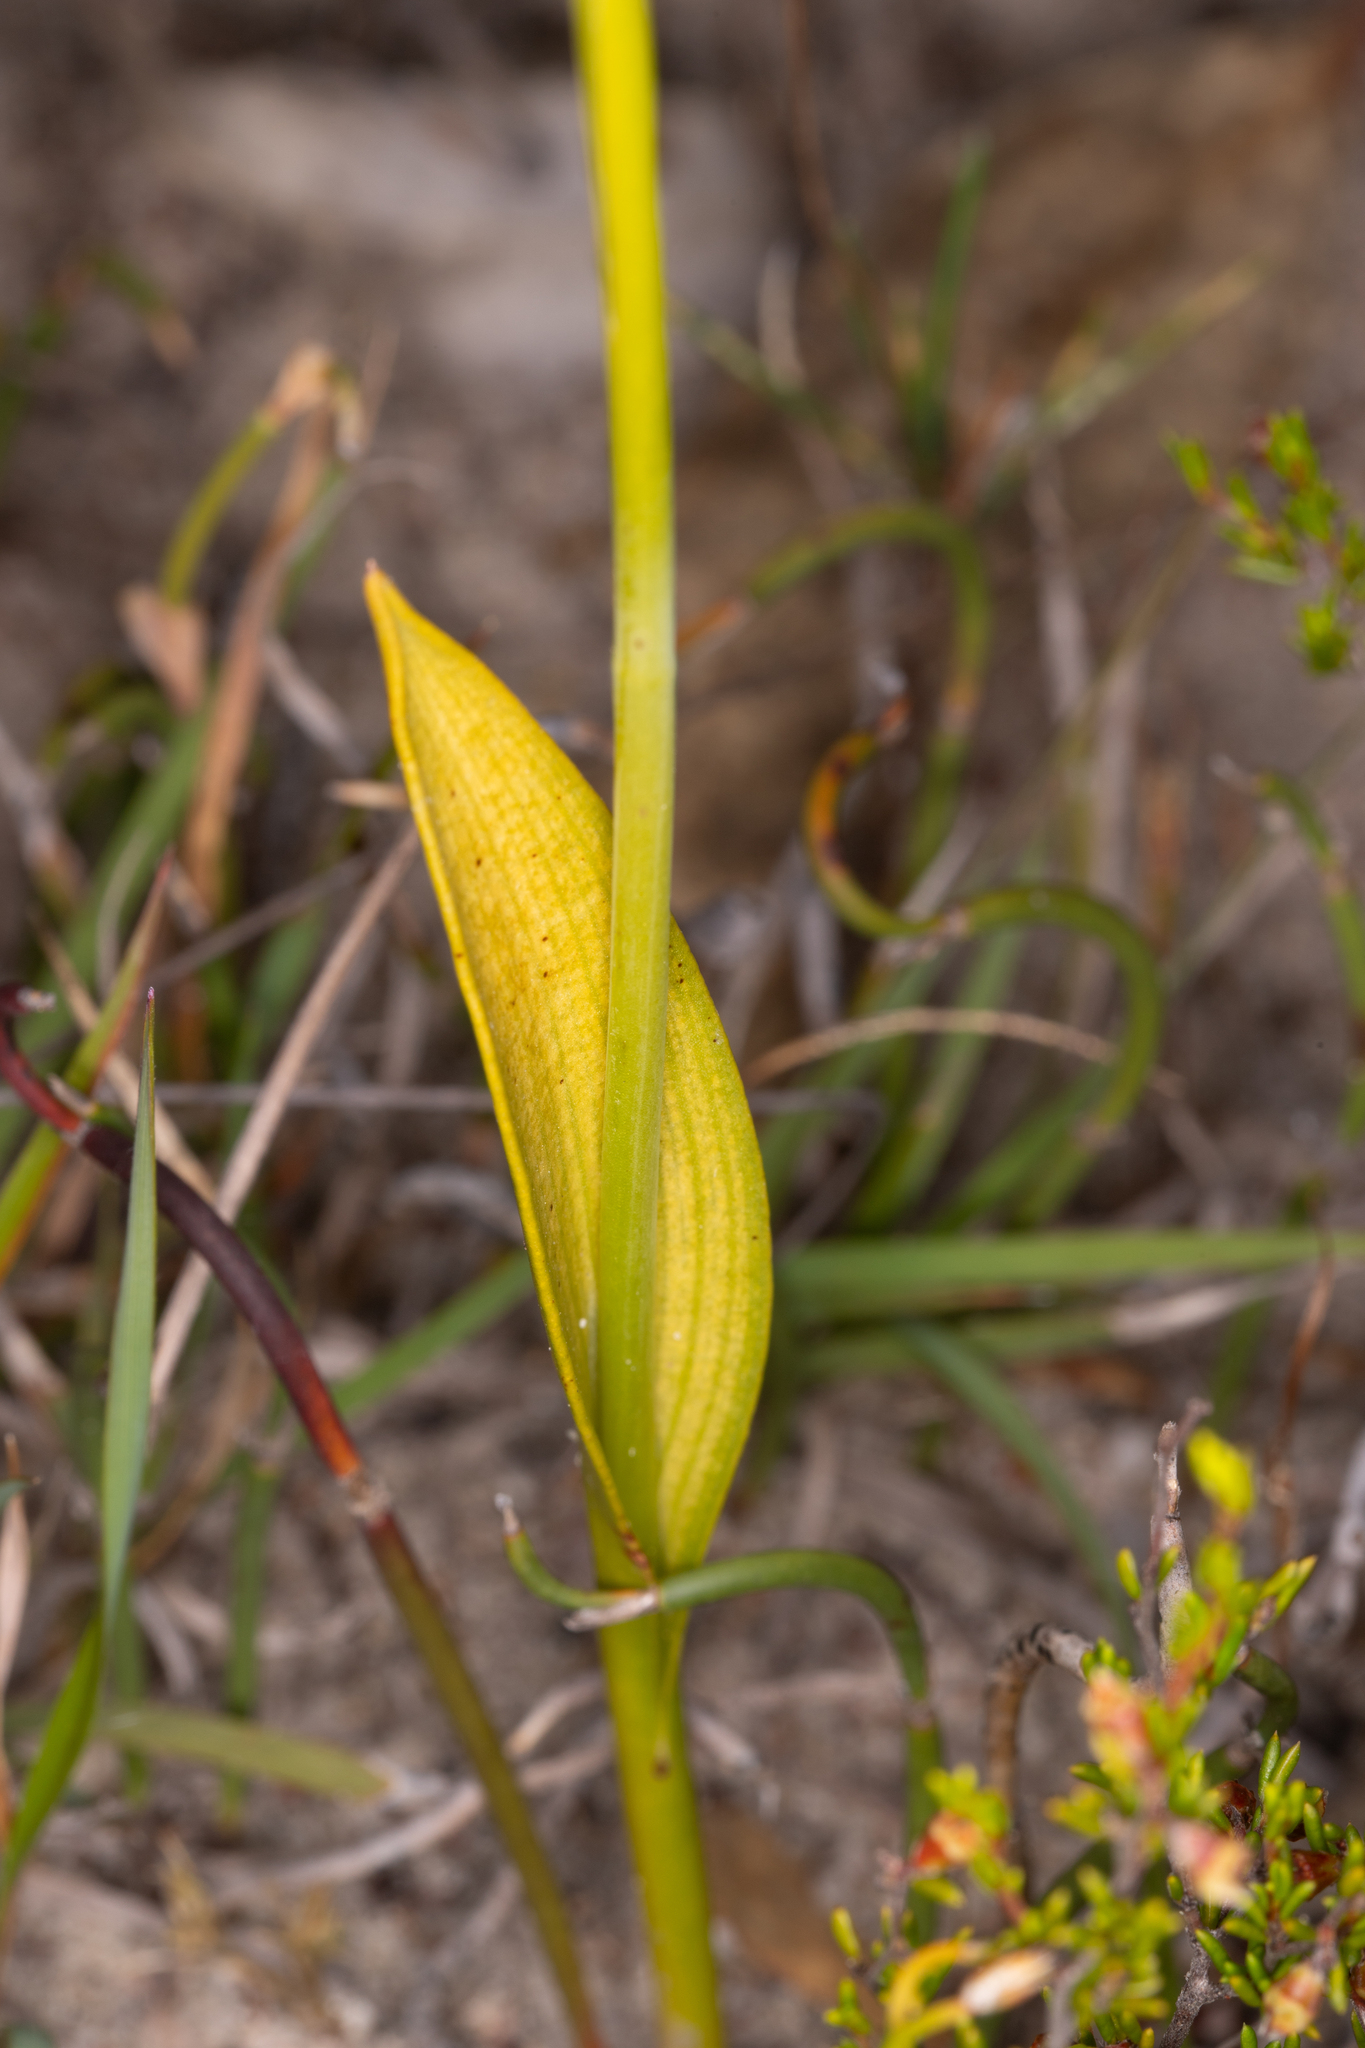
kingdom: Plantae
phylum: Tracheophyta
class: Liliopsida
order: Asparagales
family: Orchidaceae
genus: Thelymitra
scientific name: Thelymitra benthamiana
